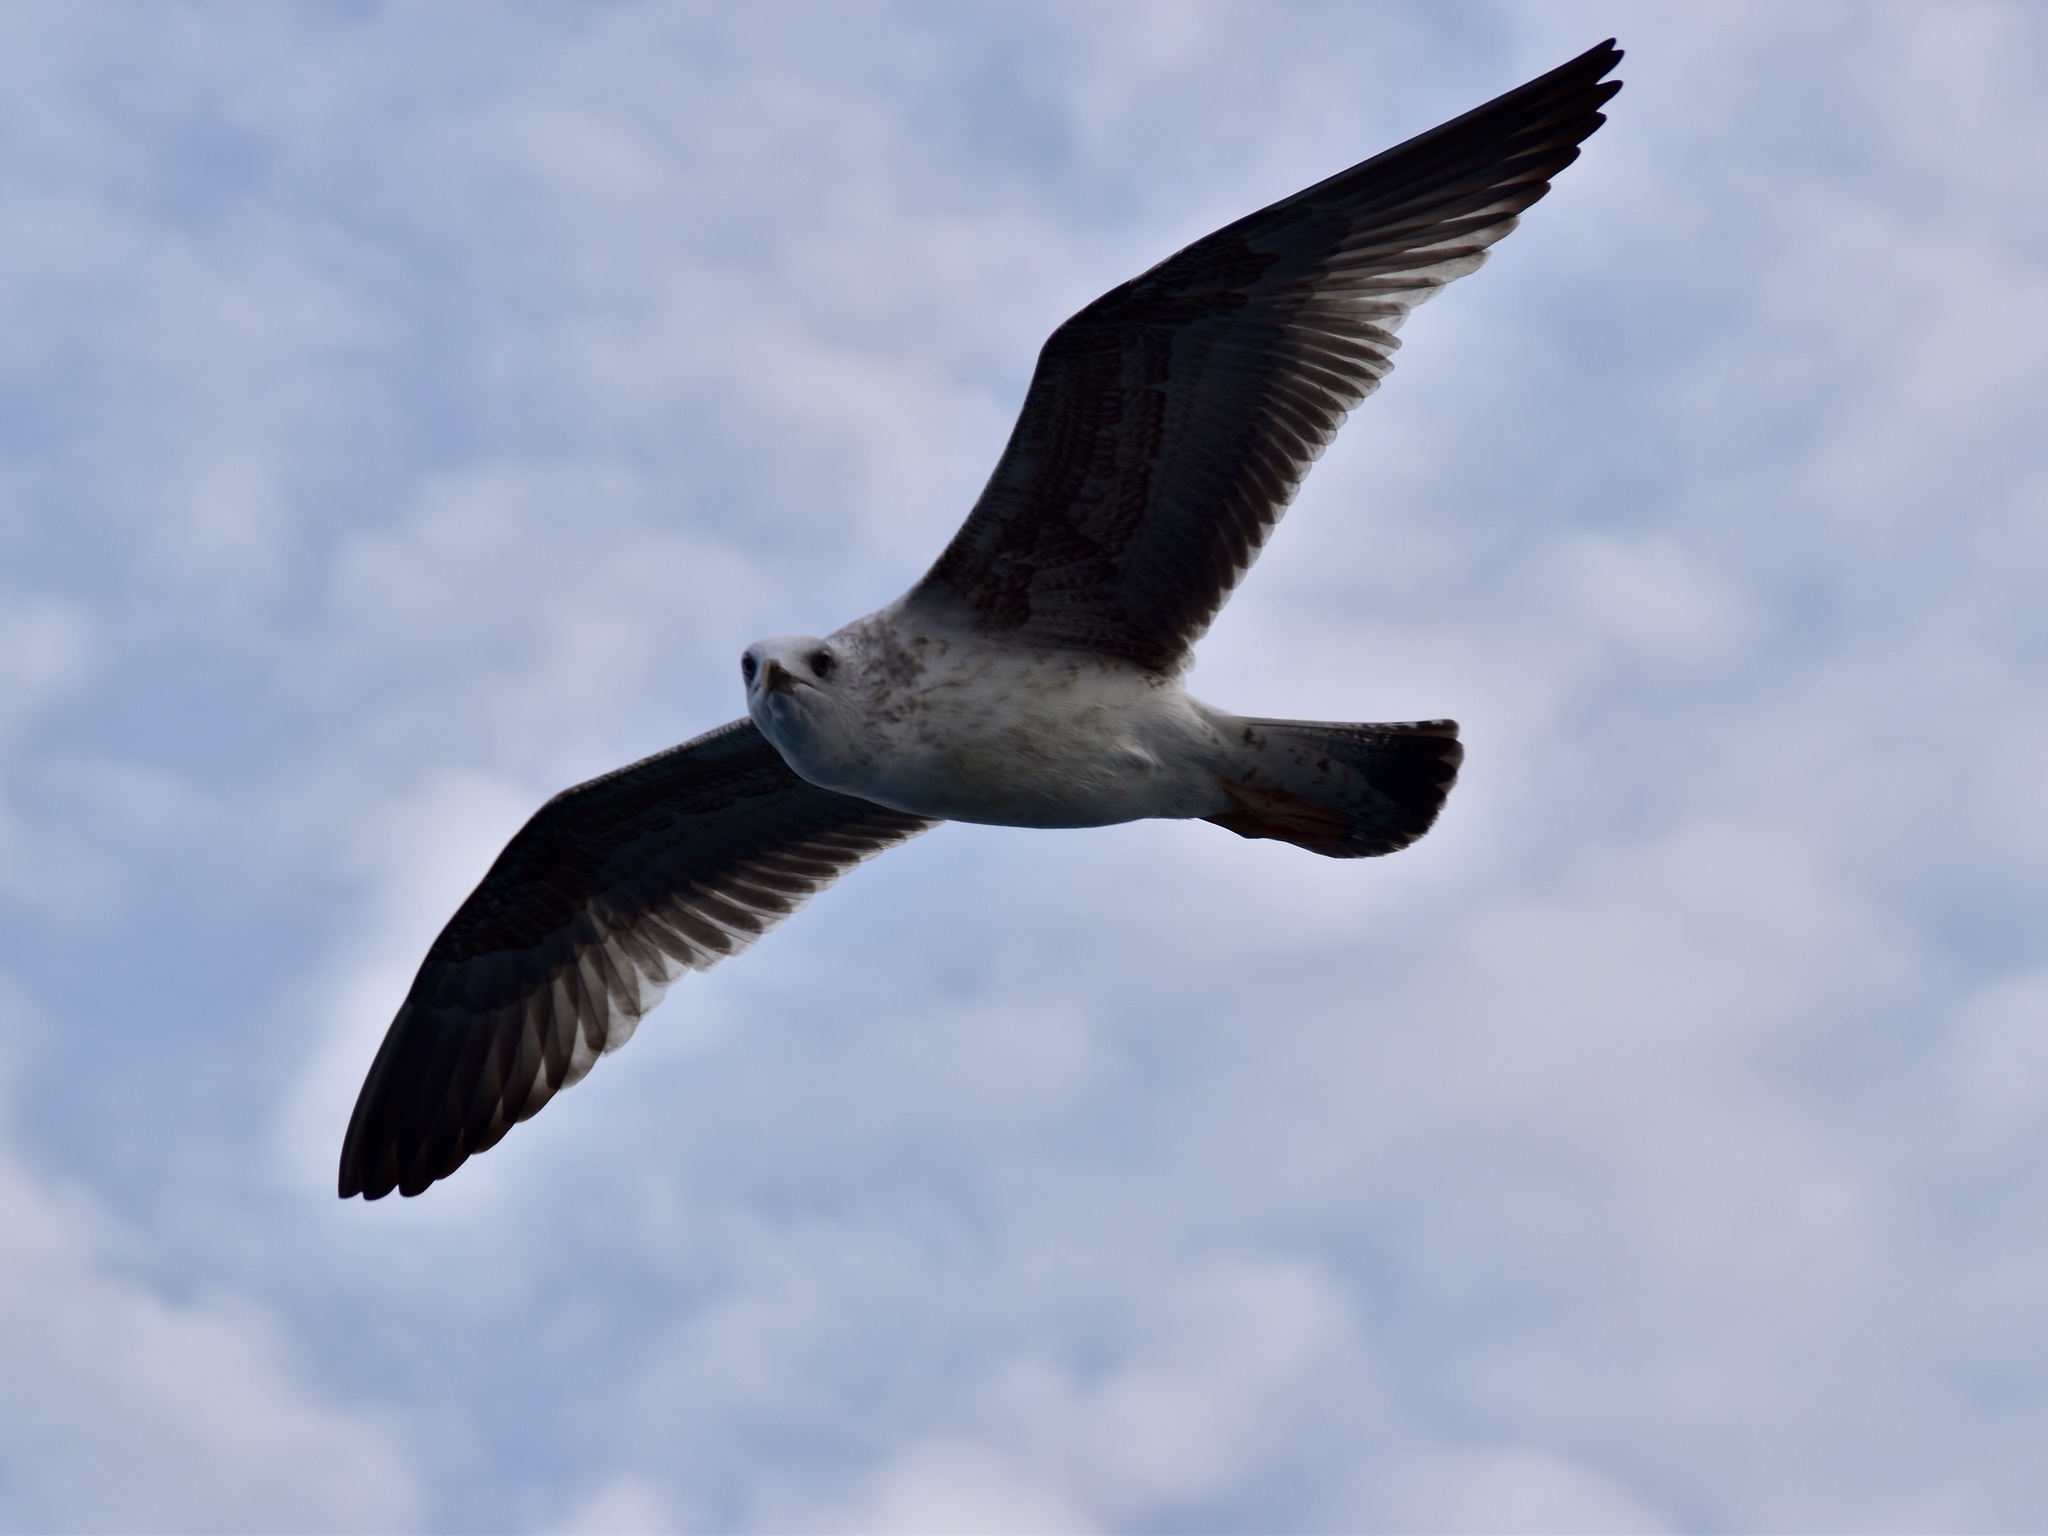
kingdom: Animalia
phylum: Chordata
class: Aves
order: Charadriiformes
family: Laridae
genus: Larus
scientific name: Larus michahellis
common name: Yellow-legged gull
